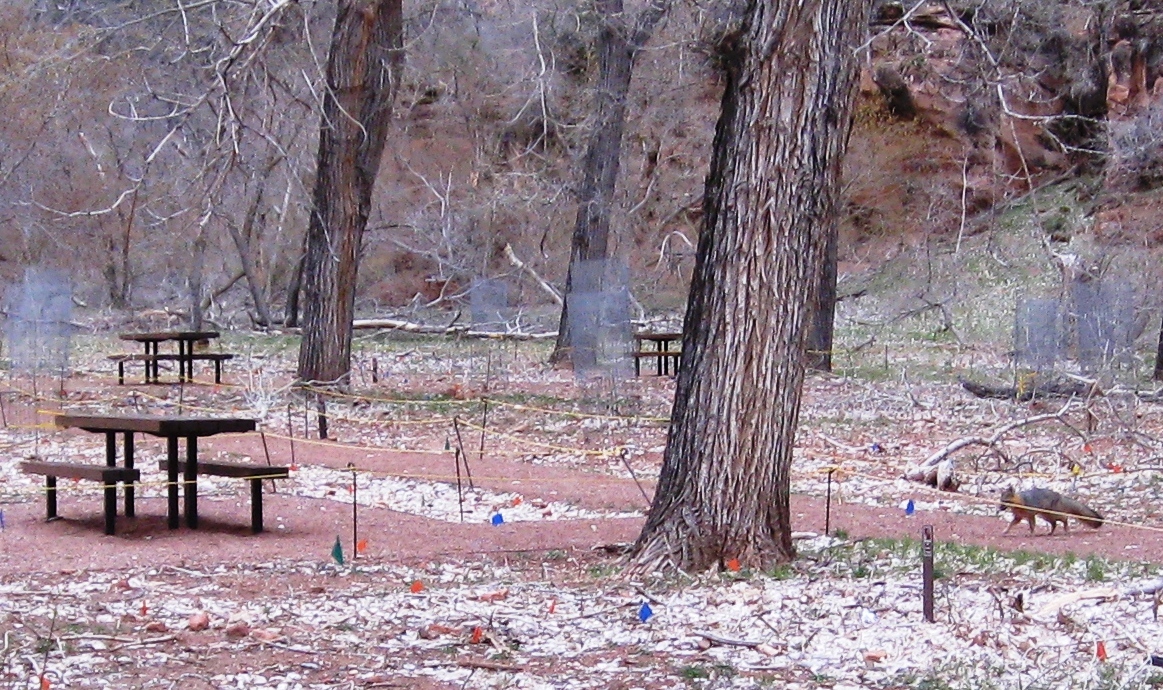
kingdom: Animalia
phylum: Chordata
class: Mammalia
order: Carnivora
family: Canidae
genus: Urocyon
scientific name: Urocyon cinereoargenteus
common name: Gray fox
